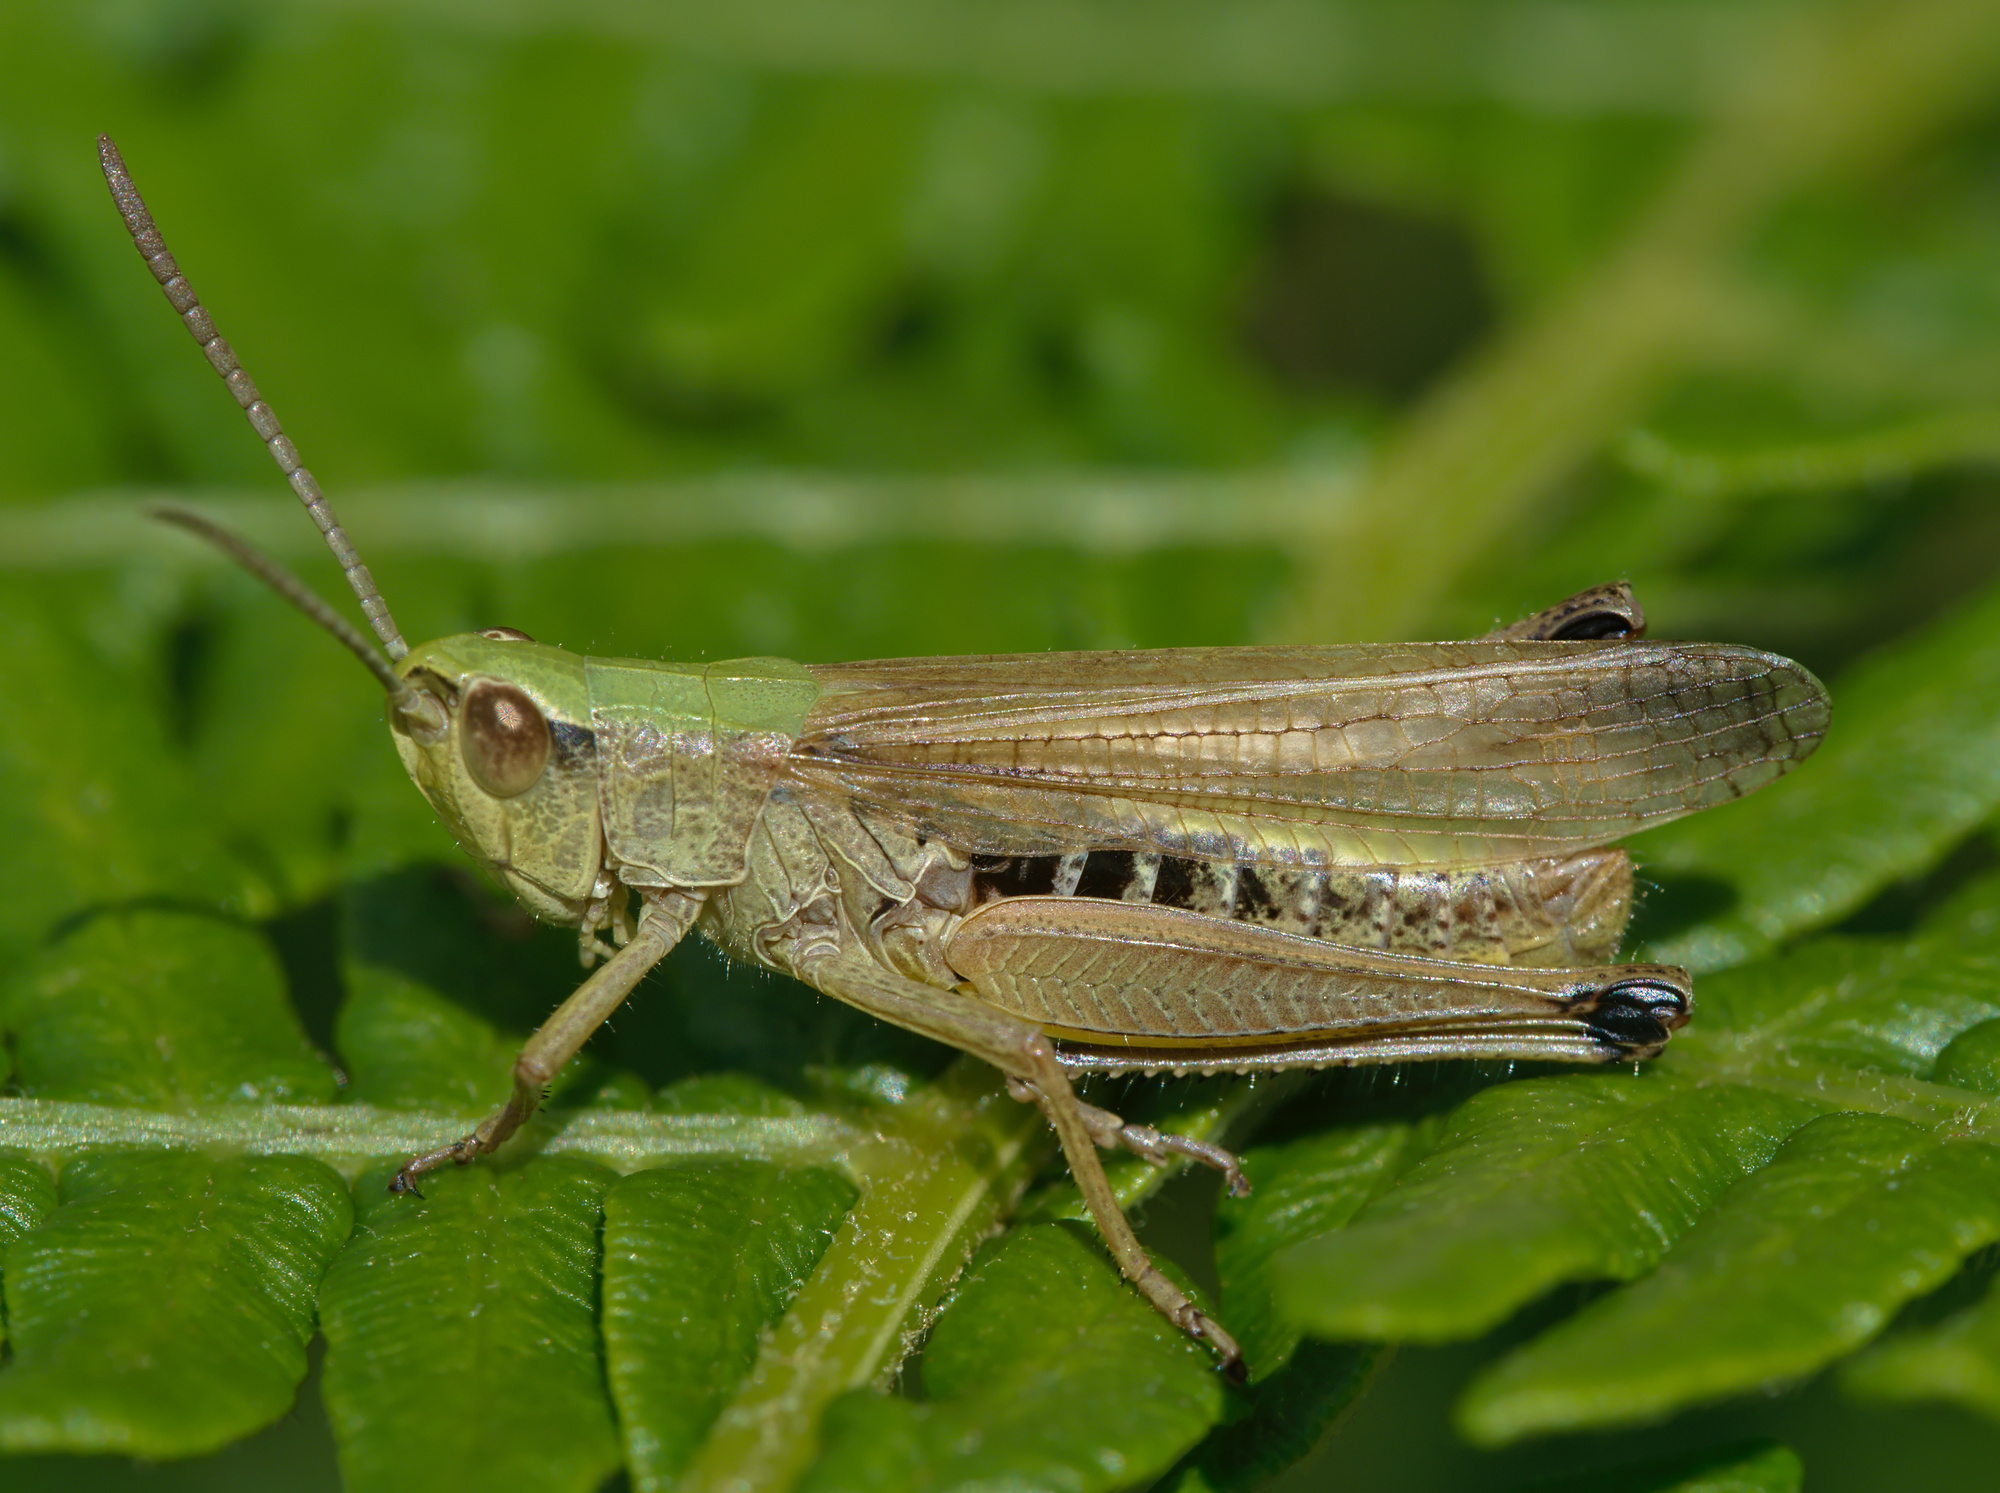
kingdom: Animalia
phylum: Arthropoda
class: Insecta
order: Orthoptera
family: Acrididae
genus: Pseudochorthippus
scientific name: Pseudochorthippus parallelus
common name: Meadow grasshopper
